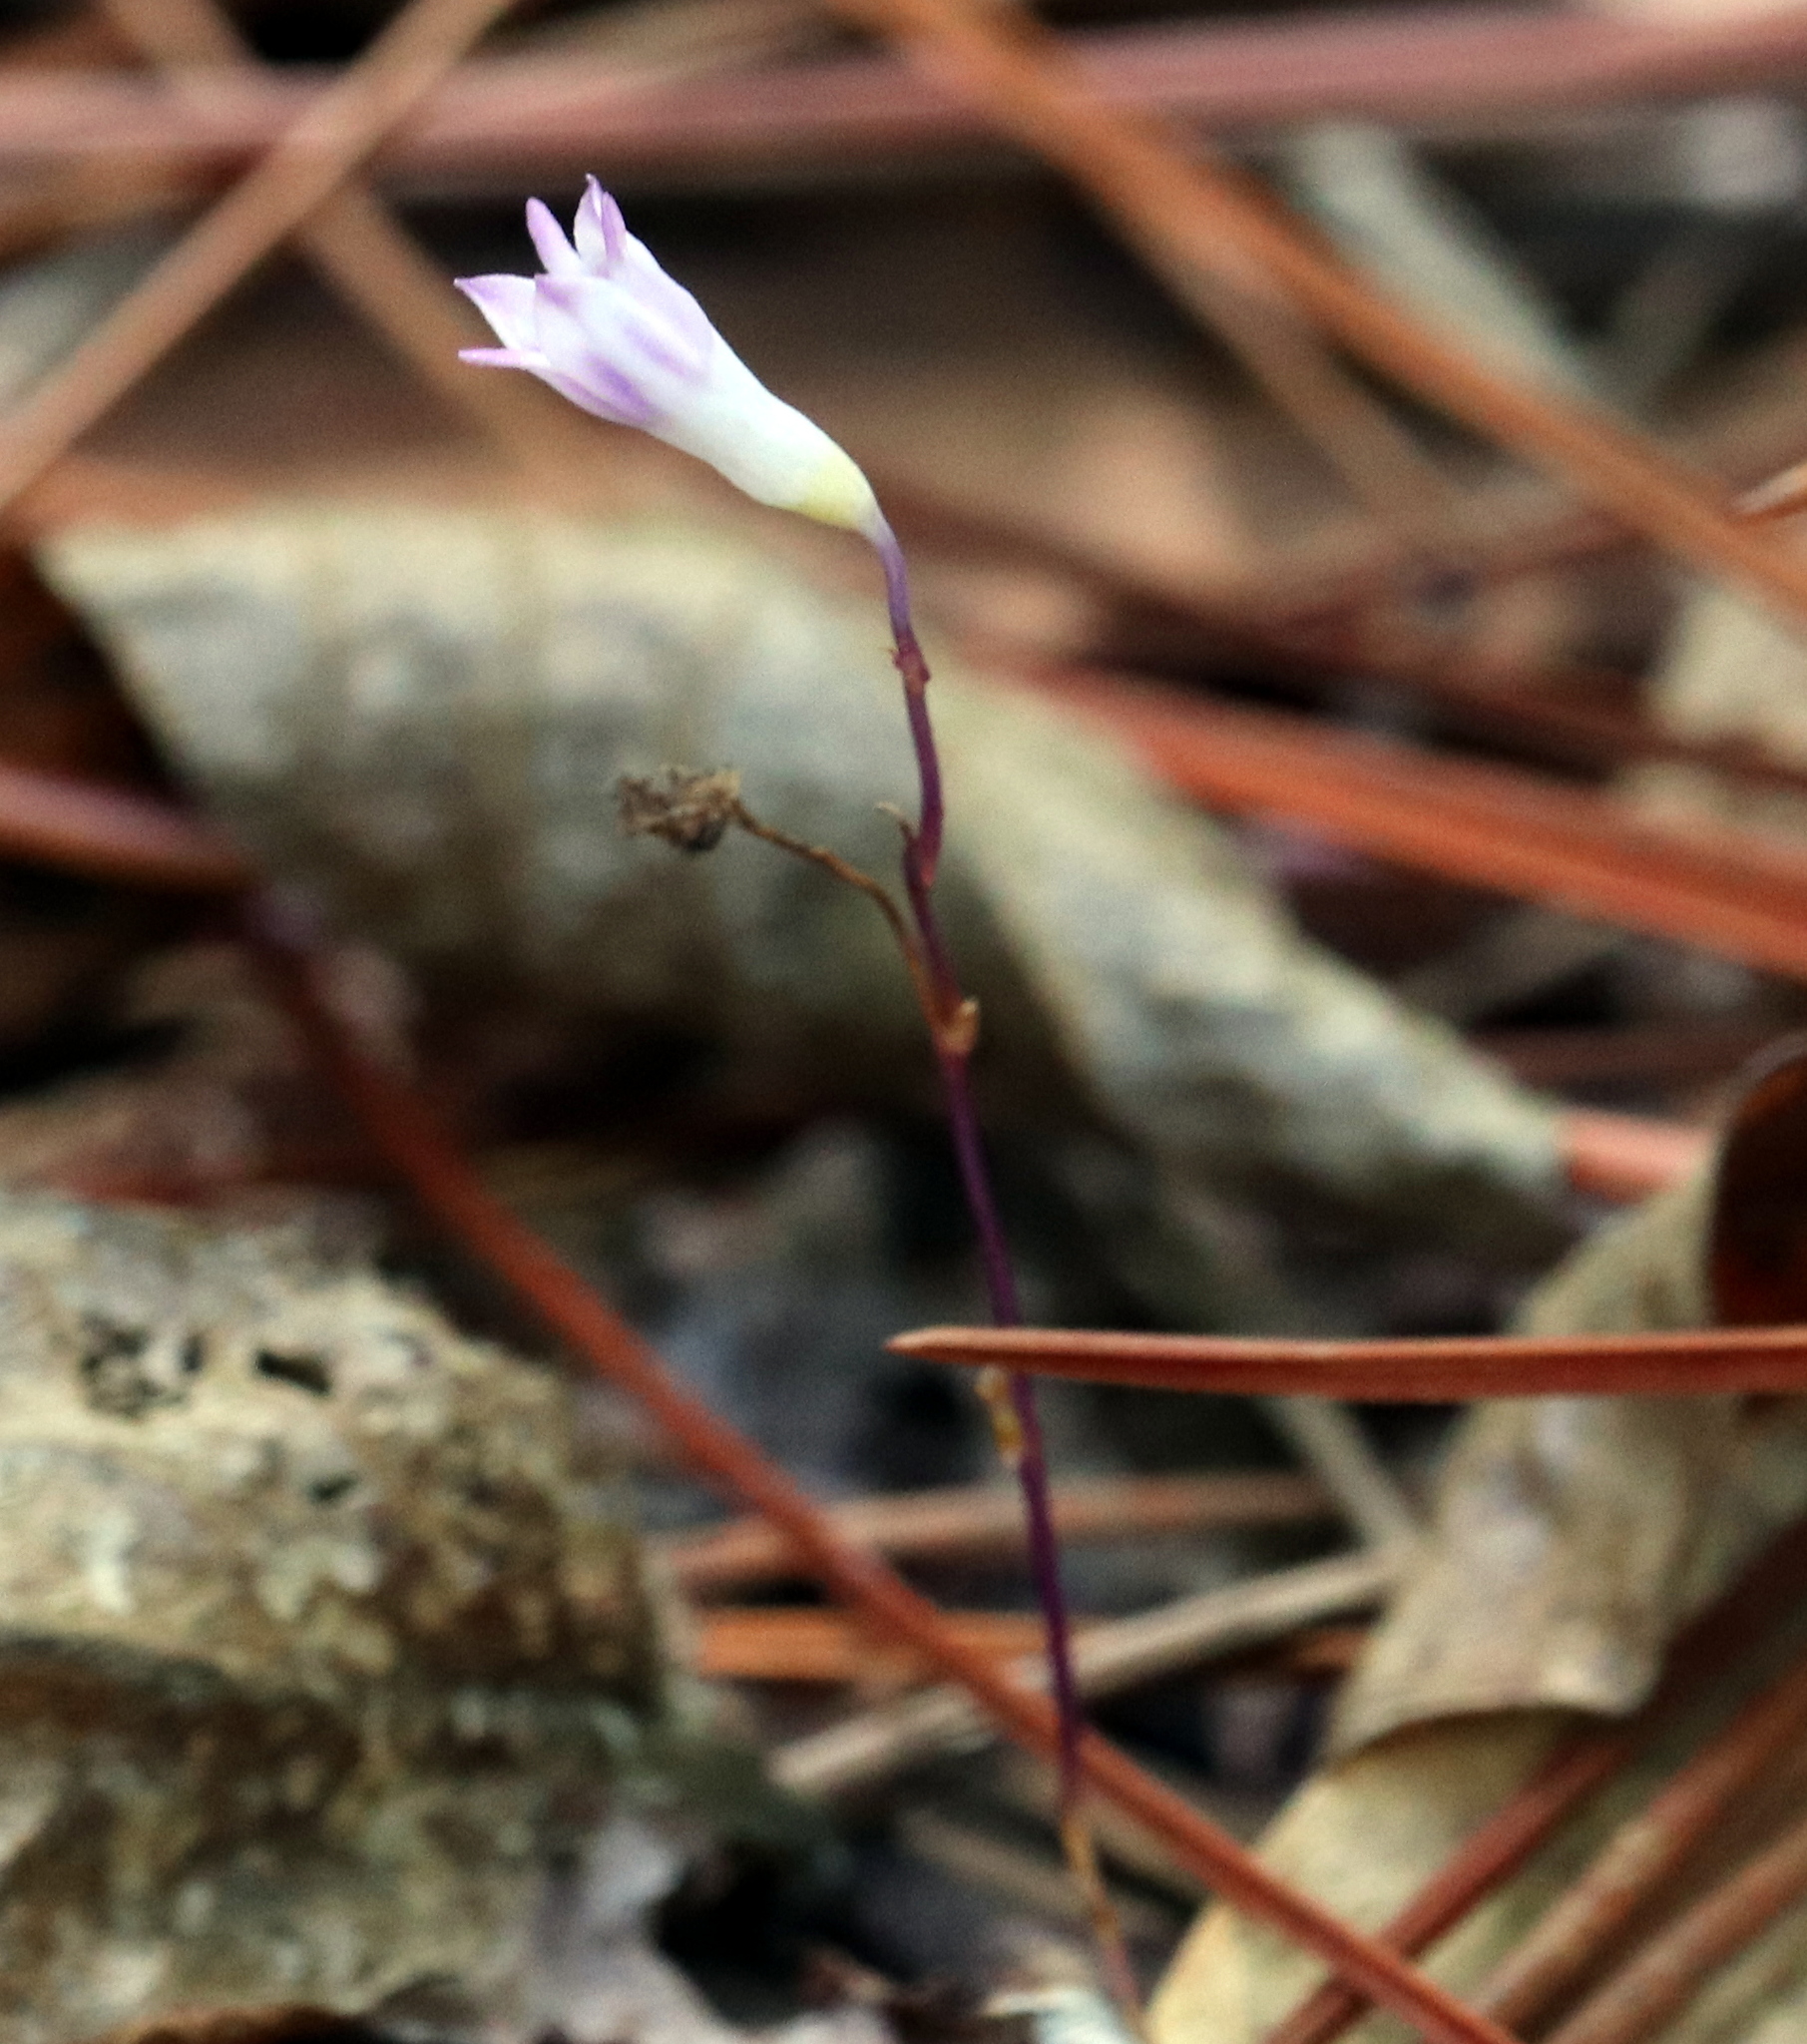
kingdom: Plantae
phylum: Tracheophyta
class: Liliopsida
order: Dioscoreales
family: Burmanniaceae
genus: Apteria
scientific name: Apteria aphylla
